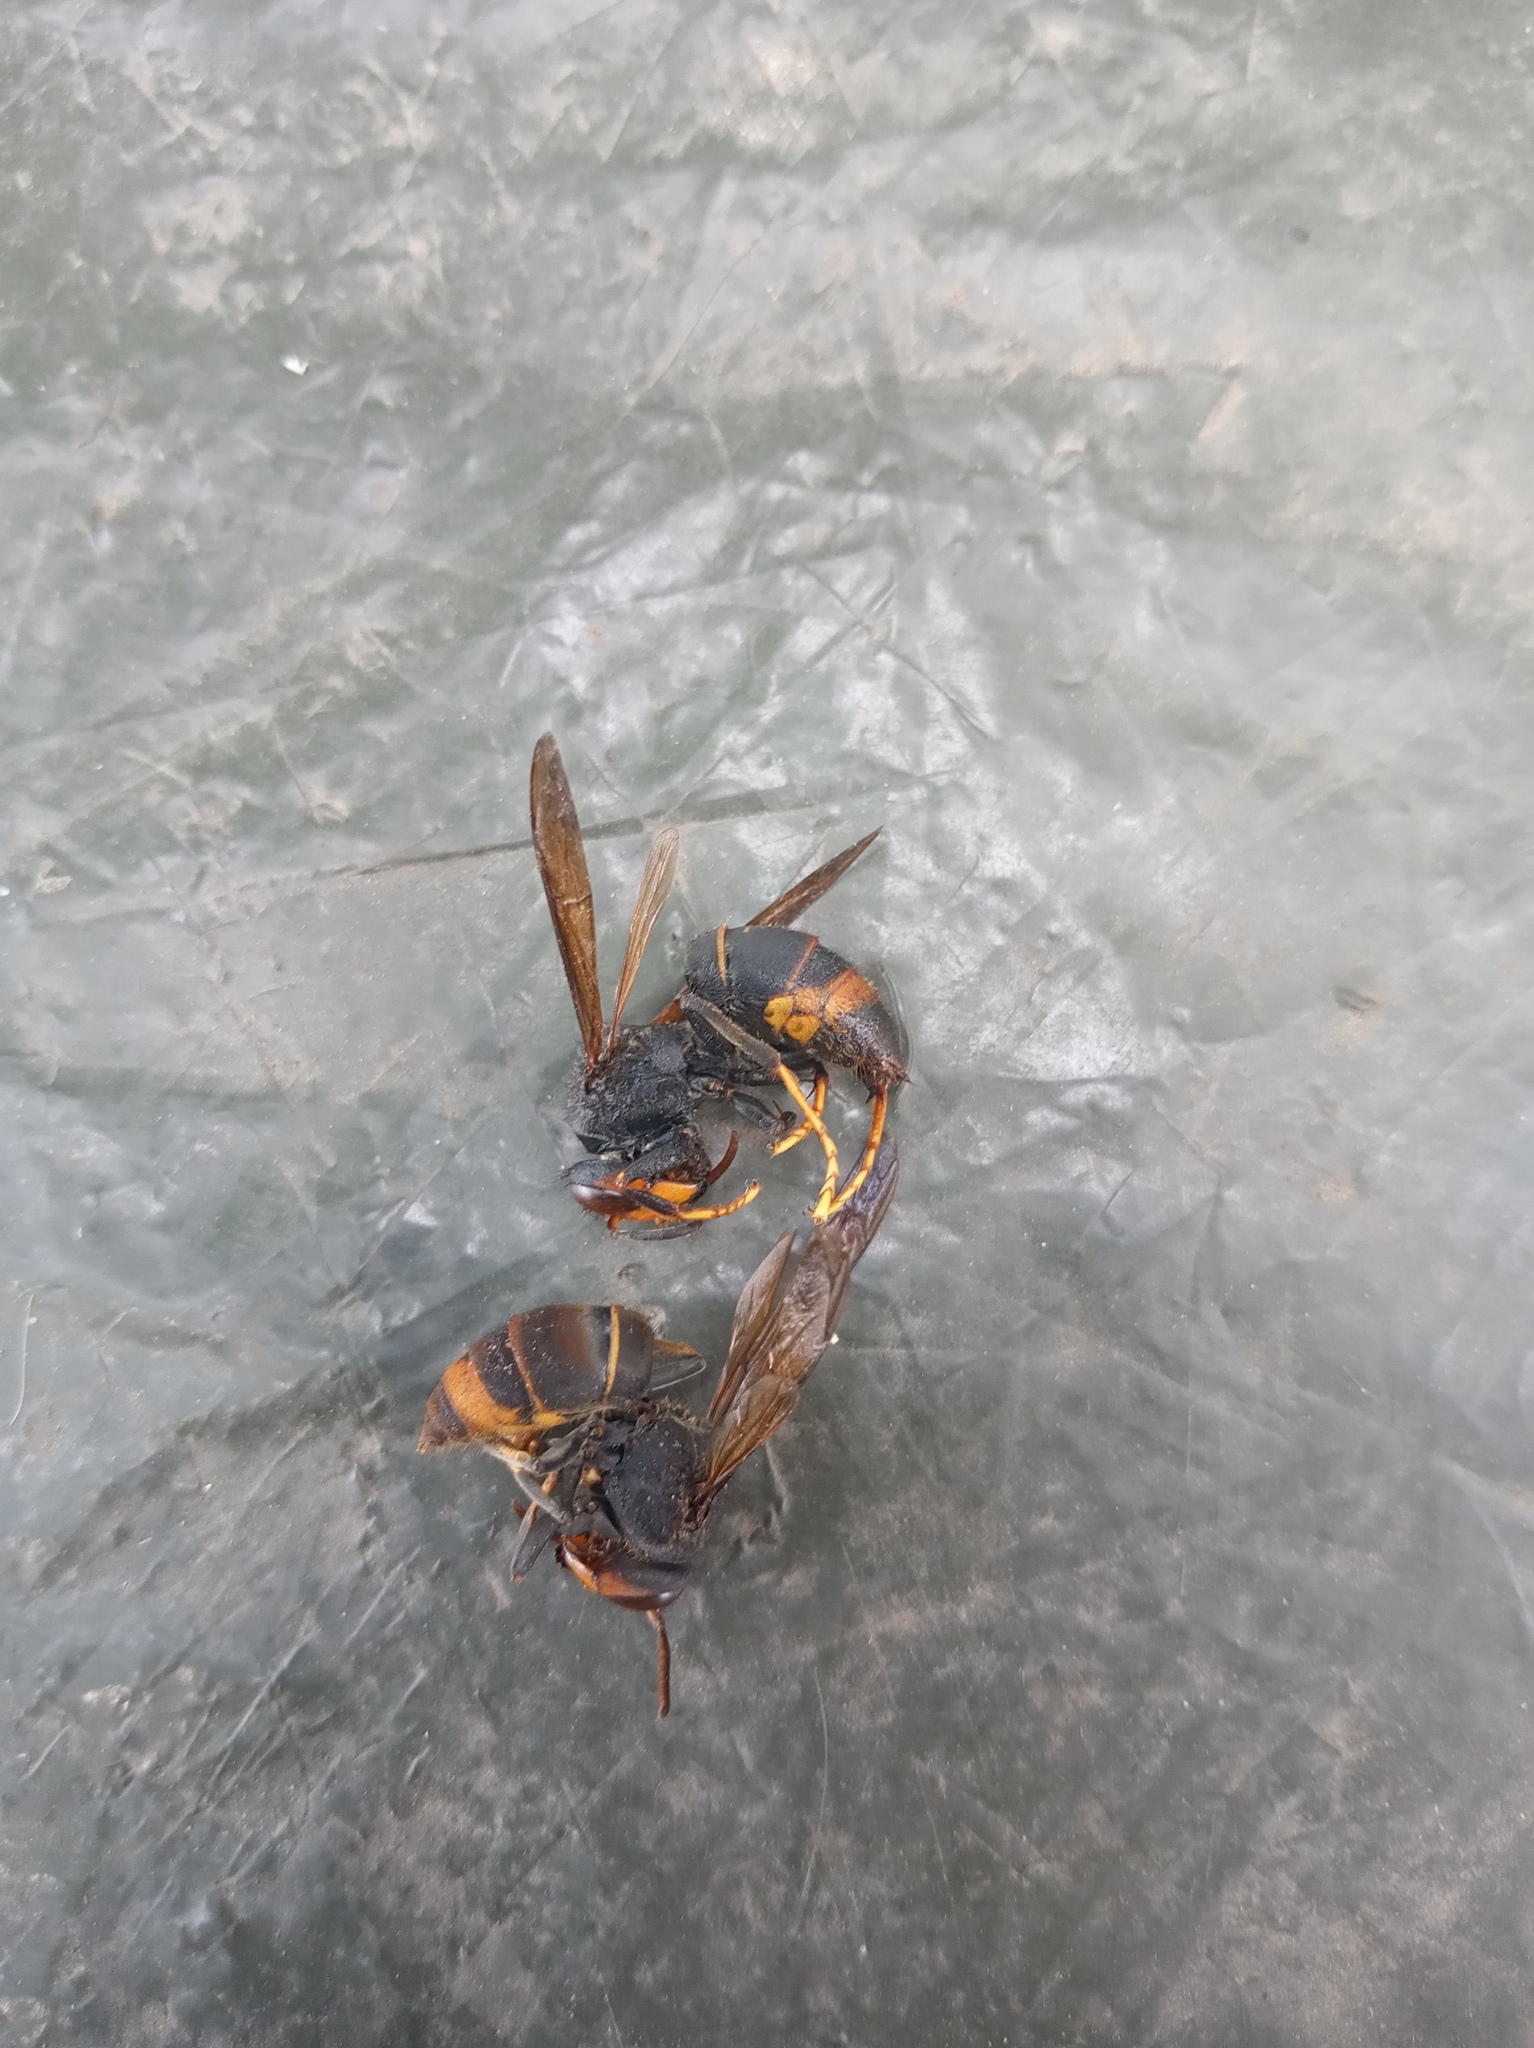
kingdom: Animalia
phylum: Arthropoda
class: Insecta
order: Hymenoptera
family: Vespidae
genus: Vespa
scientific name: Vespa velutina
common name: Asian hornet
